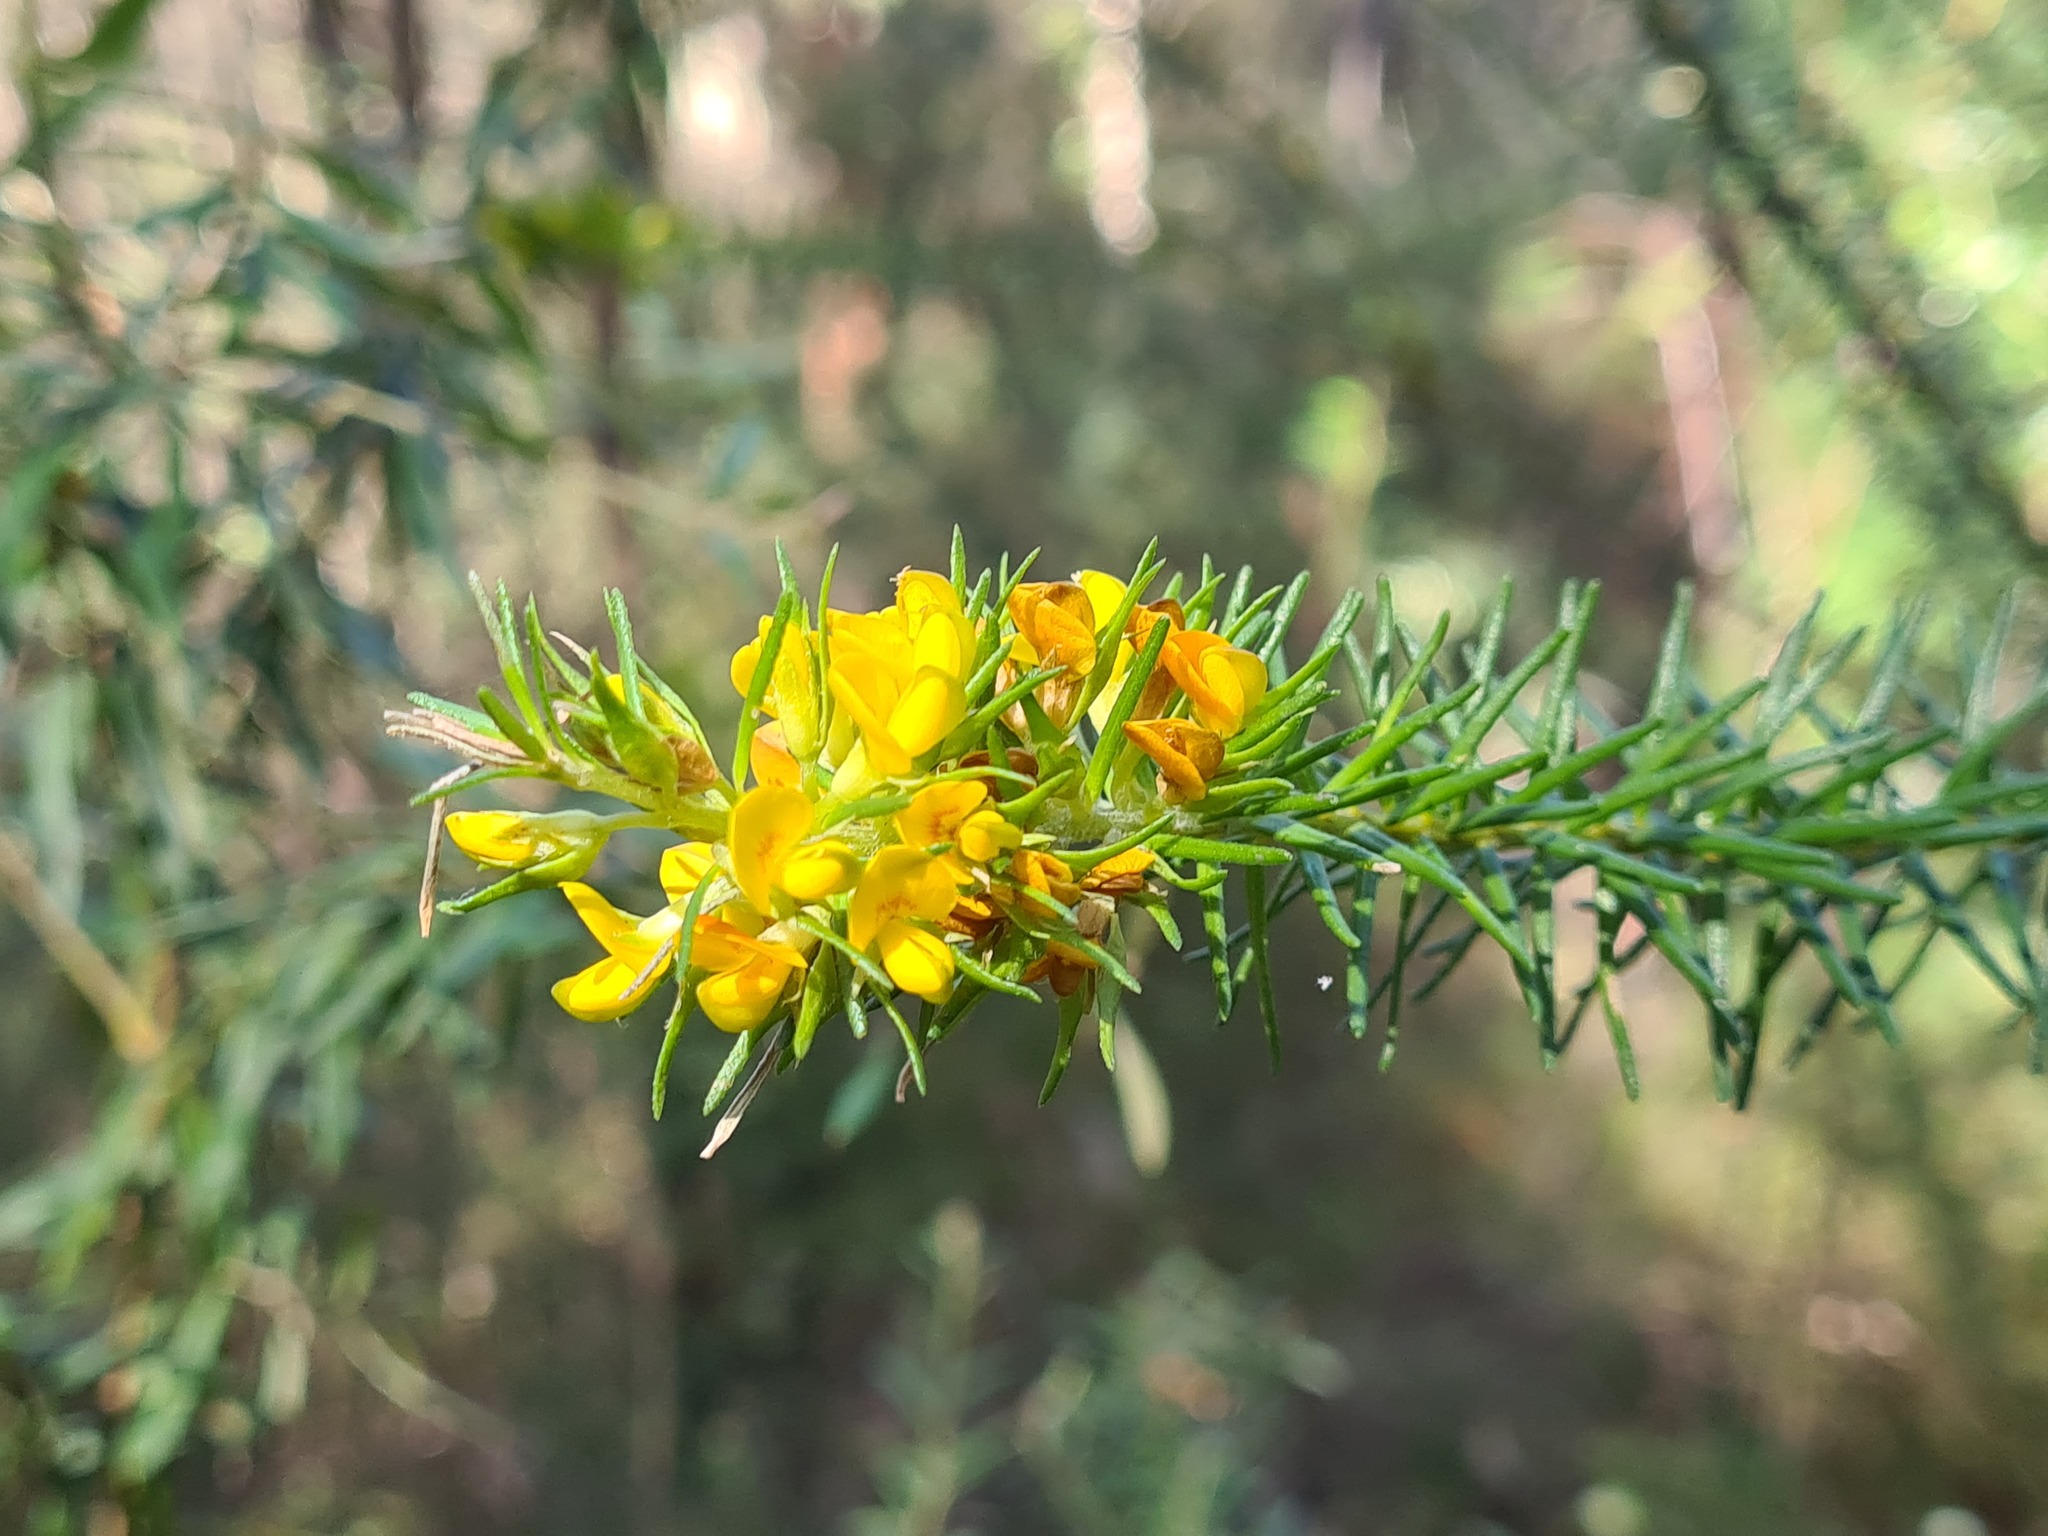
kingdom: Plantae
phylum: Tracheophyta
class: Magnoliopsida
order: Fabales
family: Fabaceae
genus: Phyllota
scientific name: Phyllota grandiflora
